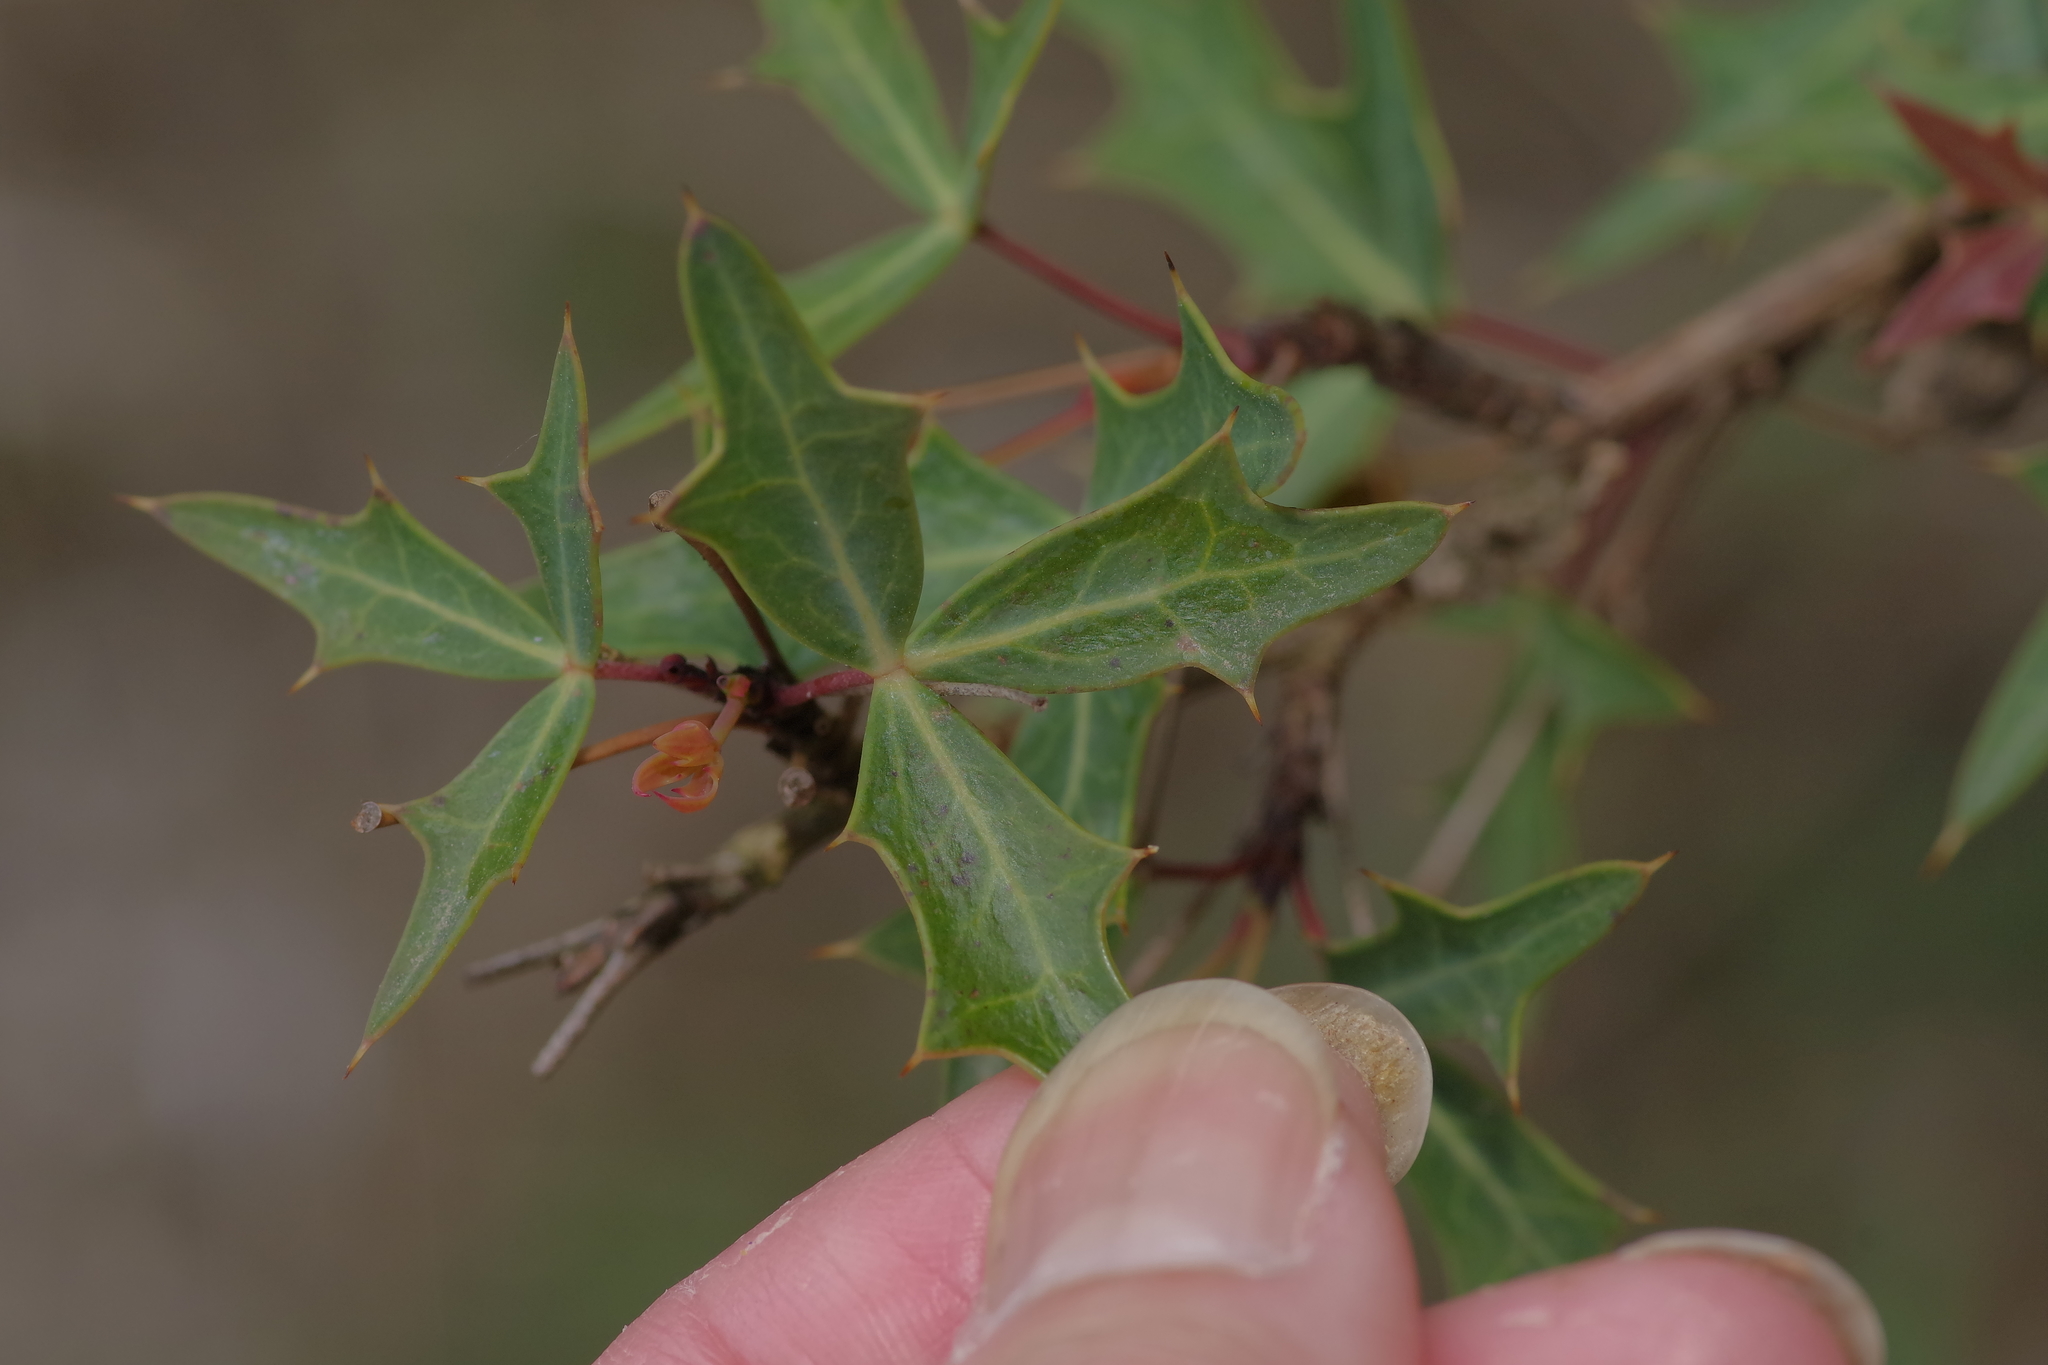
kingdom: Plantae
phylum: Tracheophyta
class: Magnoliopsida
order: Ranunculales
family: Berberidaceae
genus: Alloberberis
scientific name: Alloberberis trifoliolata
